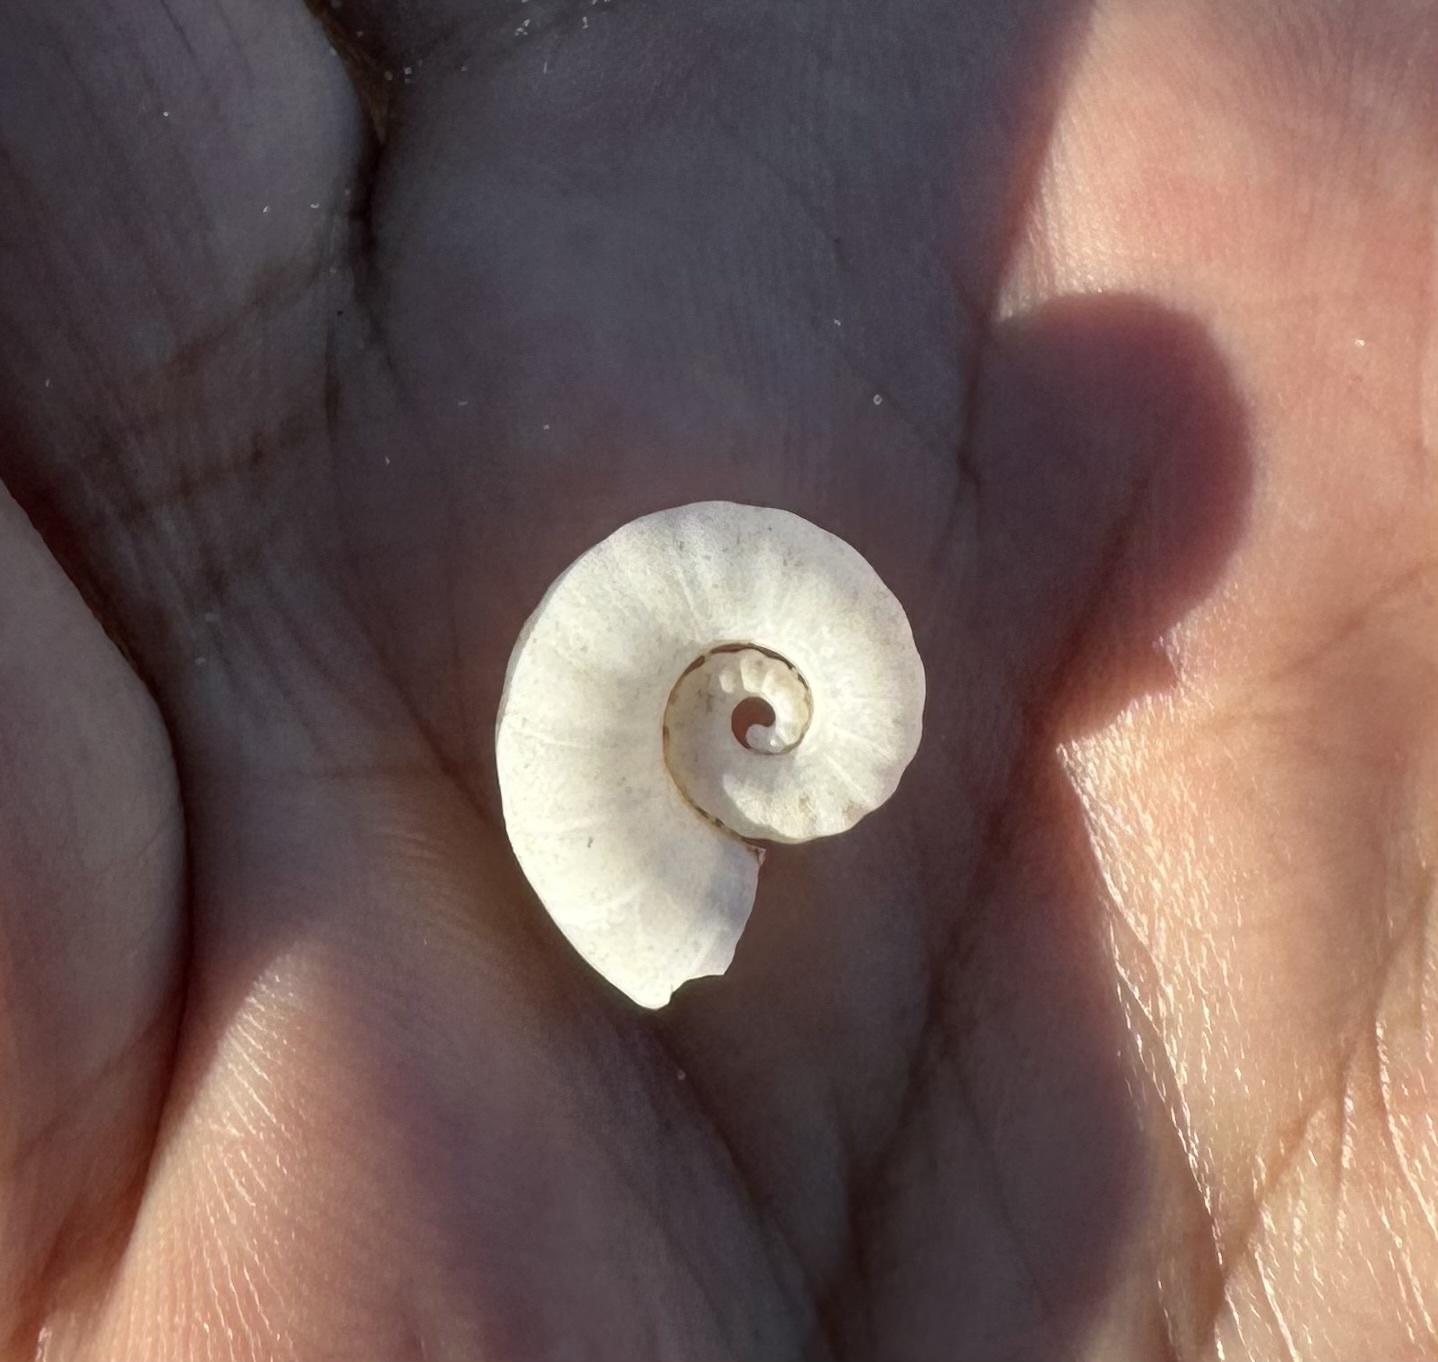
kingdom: Animalia
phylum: Mollusca
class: Cephalopoda
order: Spirulida
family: Spirulidae
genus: Spirula
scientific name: Spirula spirula
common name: Ram's horn squid
